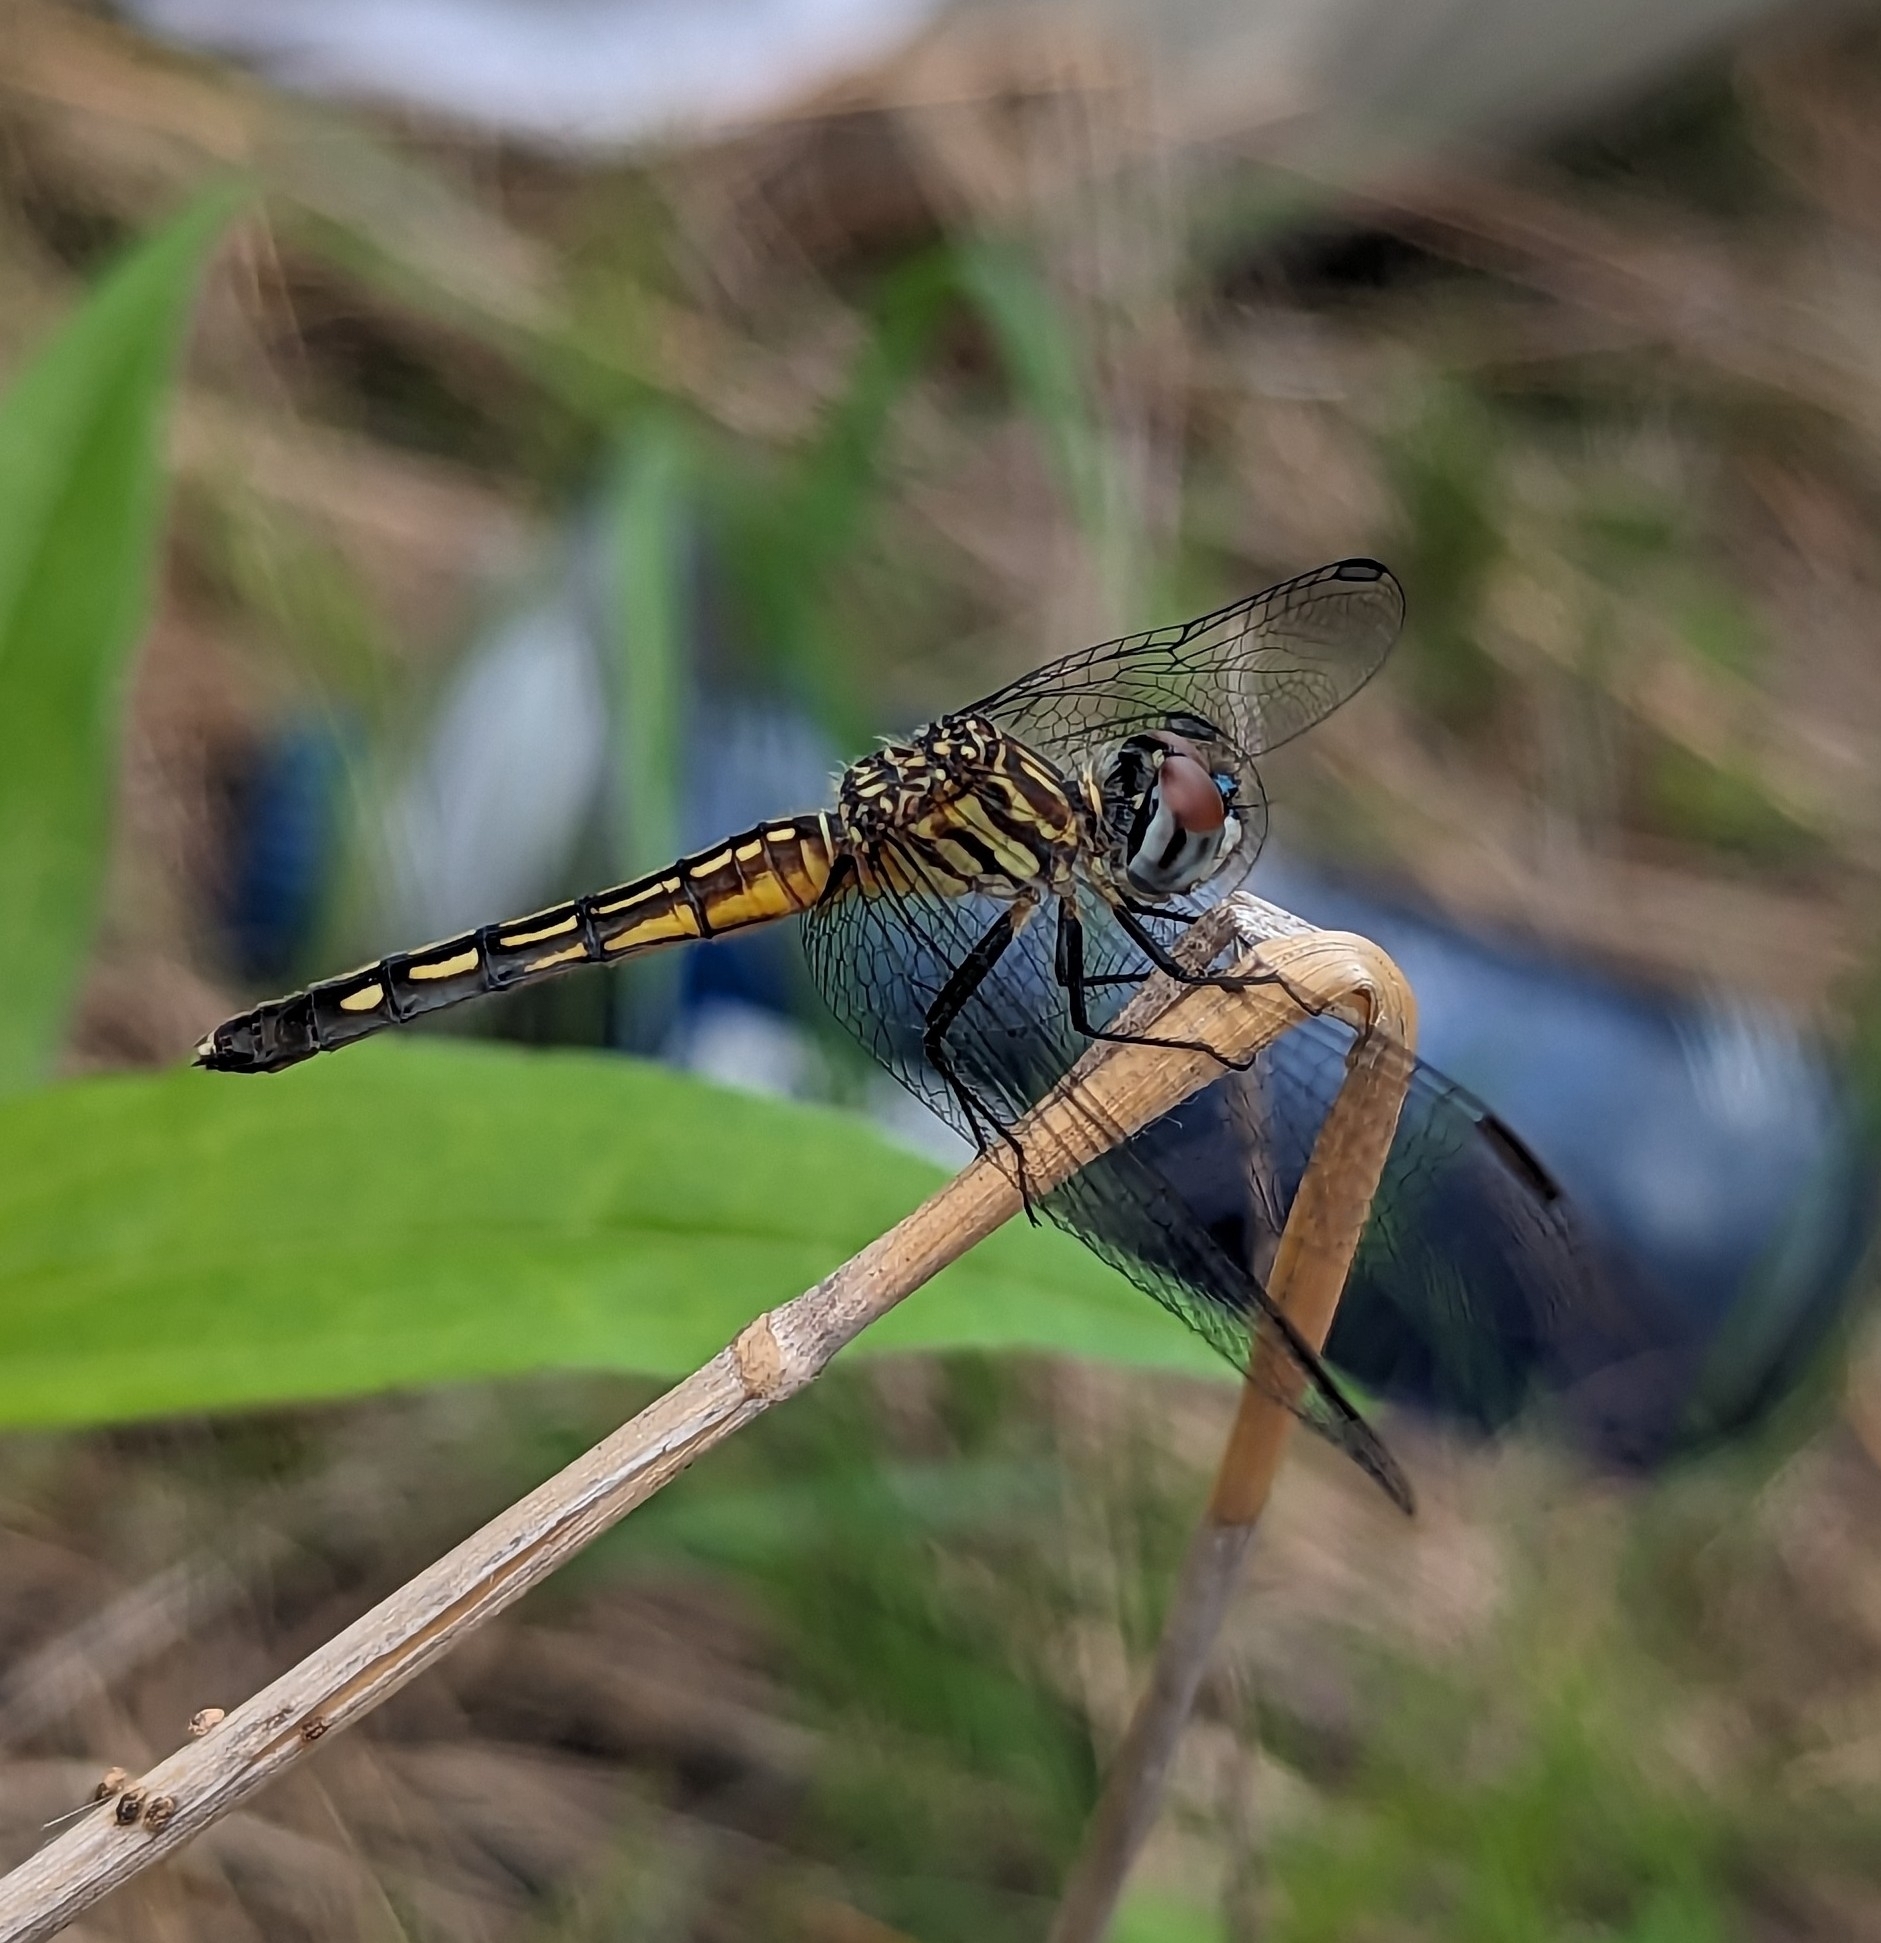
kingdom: Animalia
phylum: Arthropoda
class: Insecta
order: Odonata
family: Libellulidae
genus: Pachydiplax
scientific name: Pachydiplax longipennis
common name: Blue dasher
